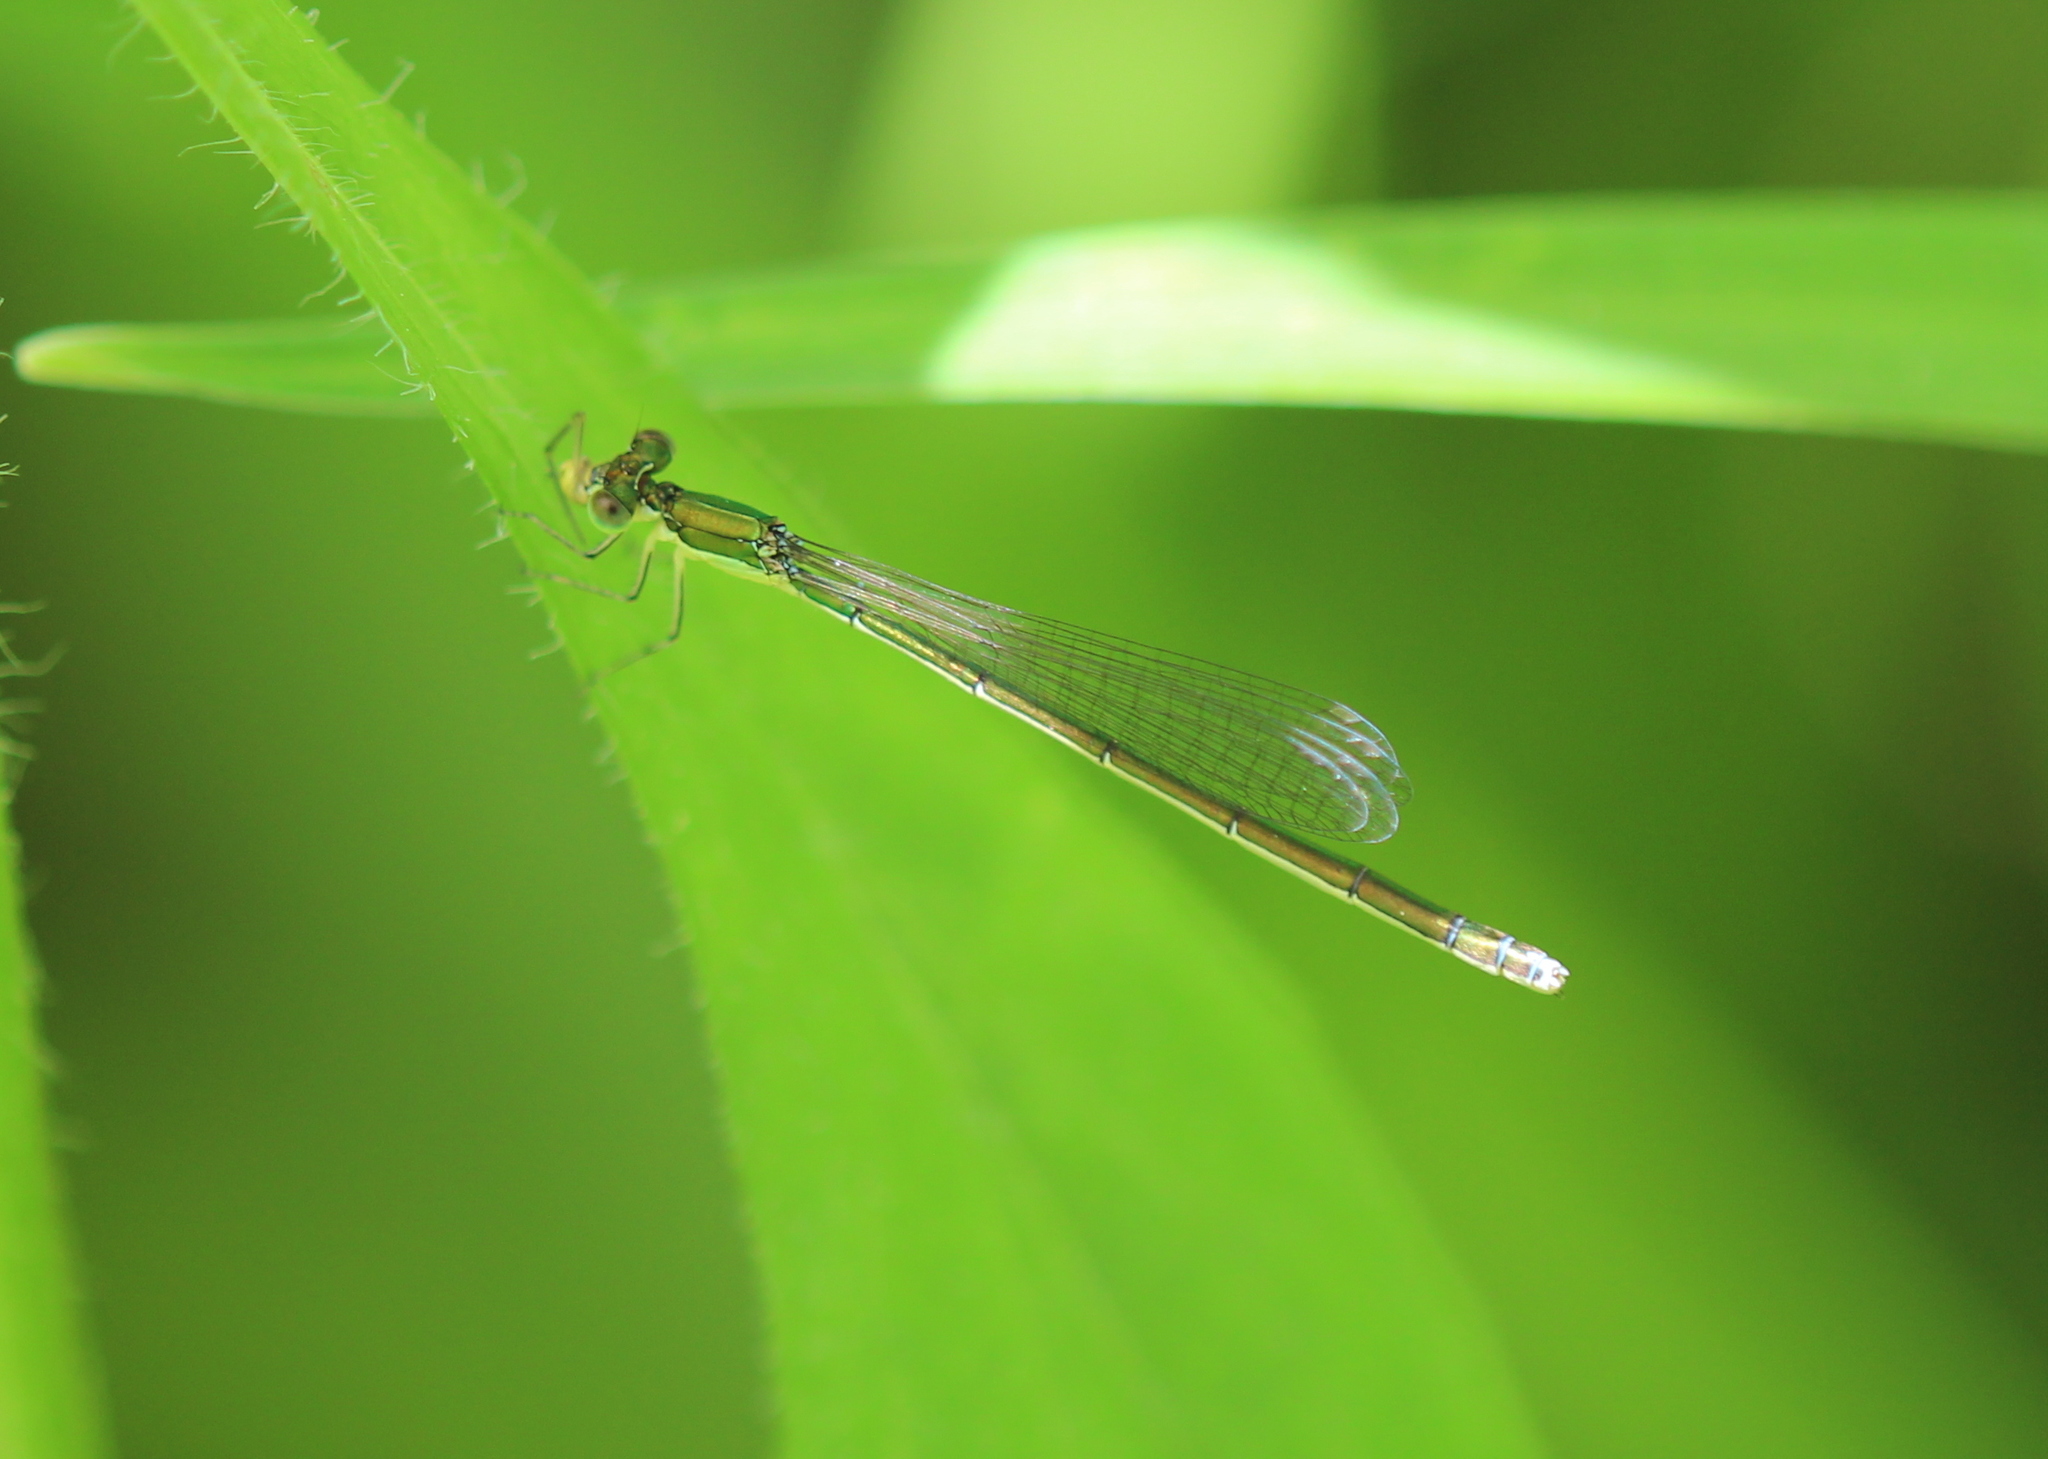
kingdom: Animalia
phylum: Arthropoda
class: Insecta
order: Odonata
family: Coenagrionidae
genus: Nehalennia
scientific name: Nehalennia irene
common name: Sedge sprite
